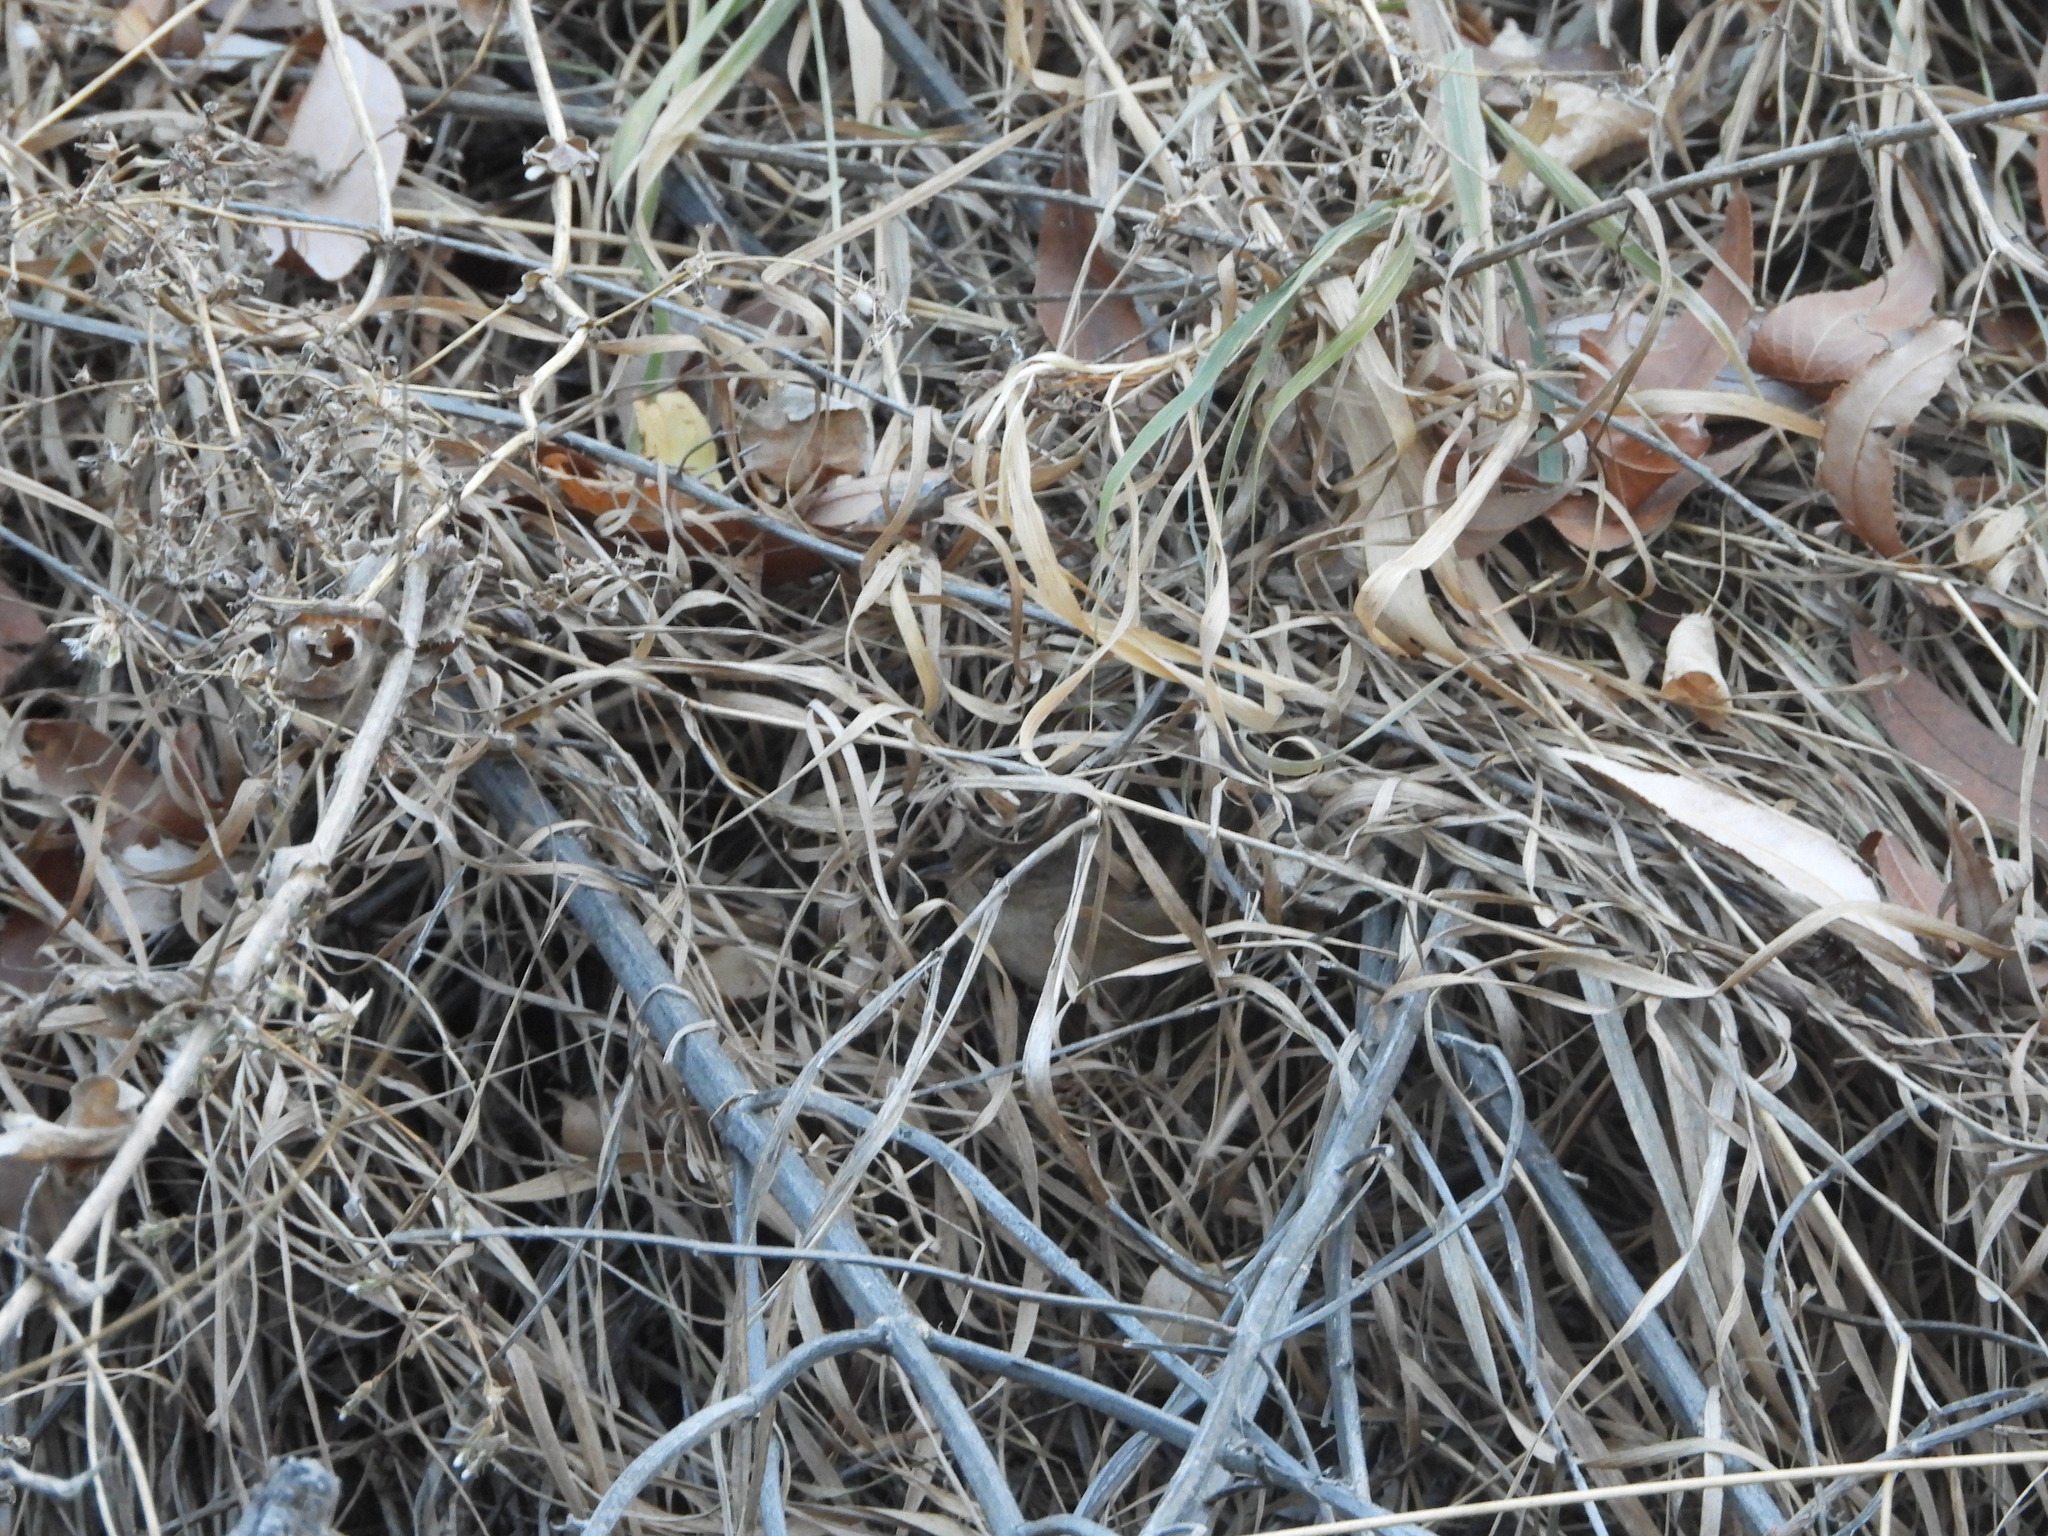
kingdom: Animalia
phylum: Chordata
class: Aves
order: Passeriformes
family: Troglodytidae
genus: Cistothorus
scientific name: Cistothorus platensis
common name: Sedge wren
